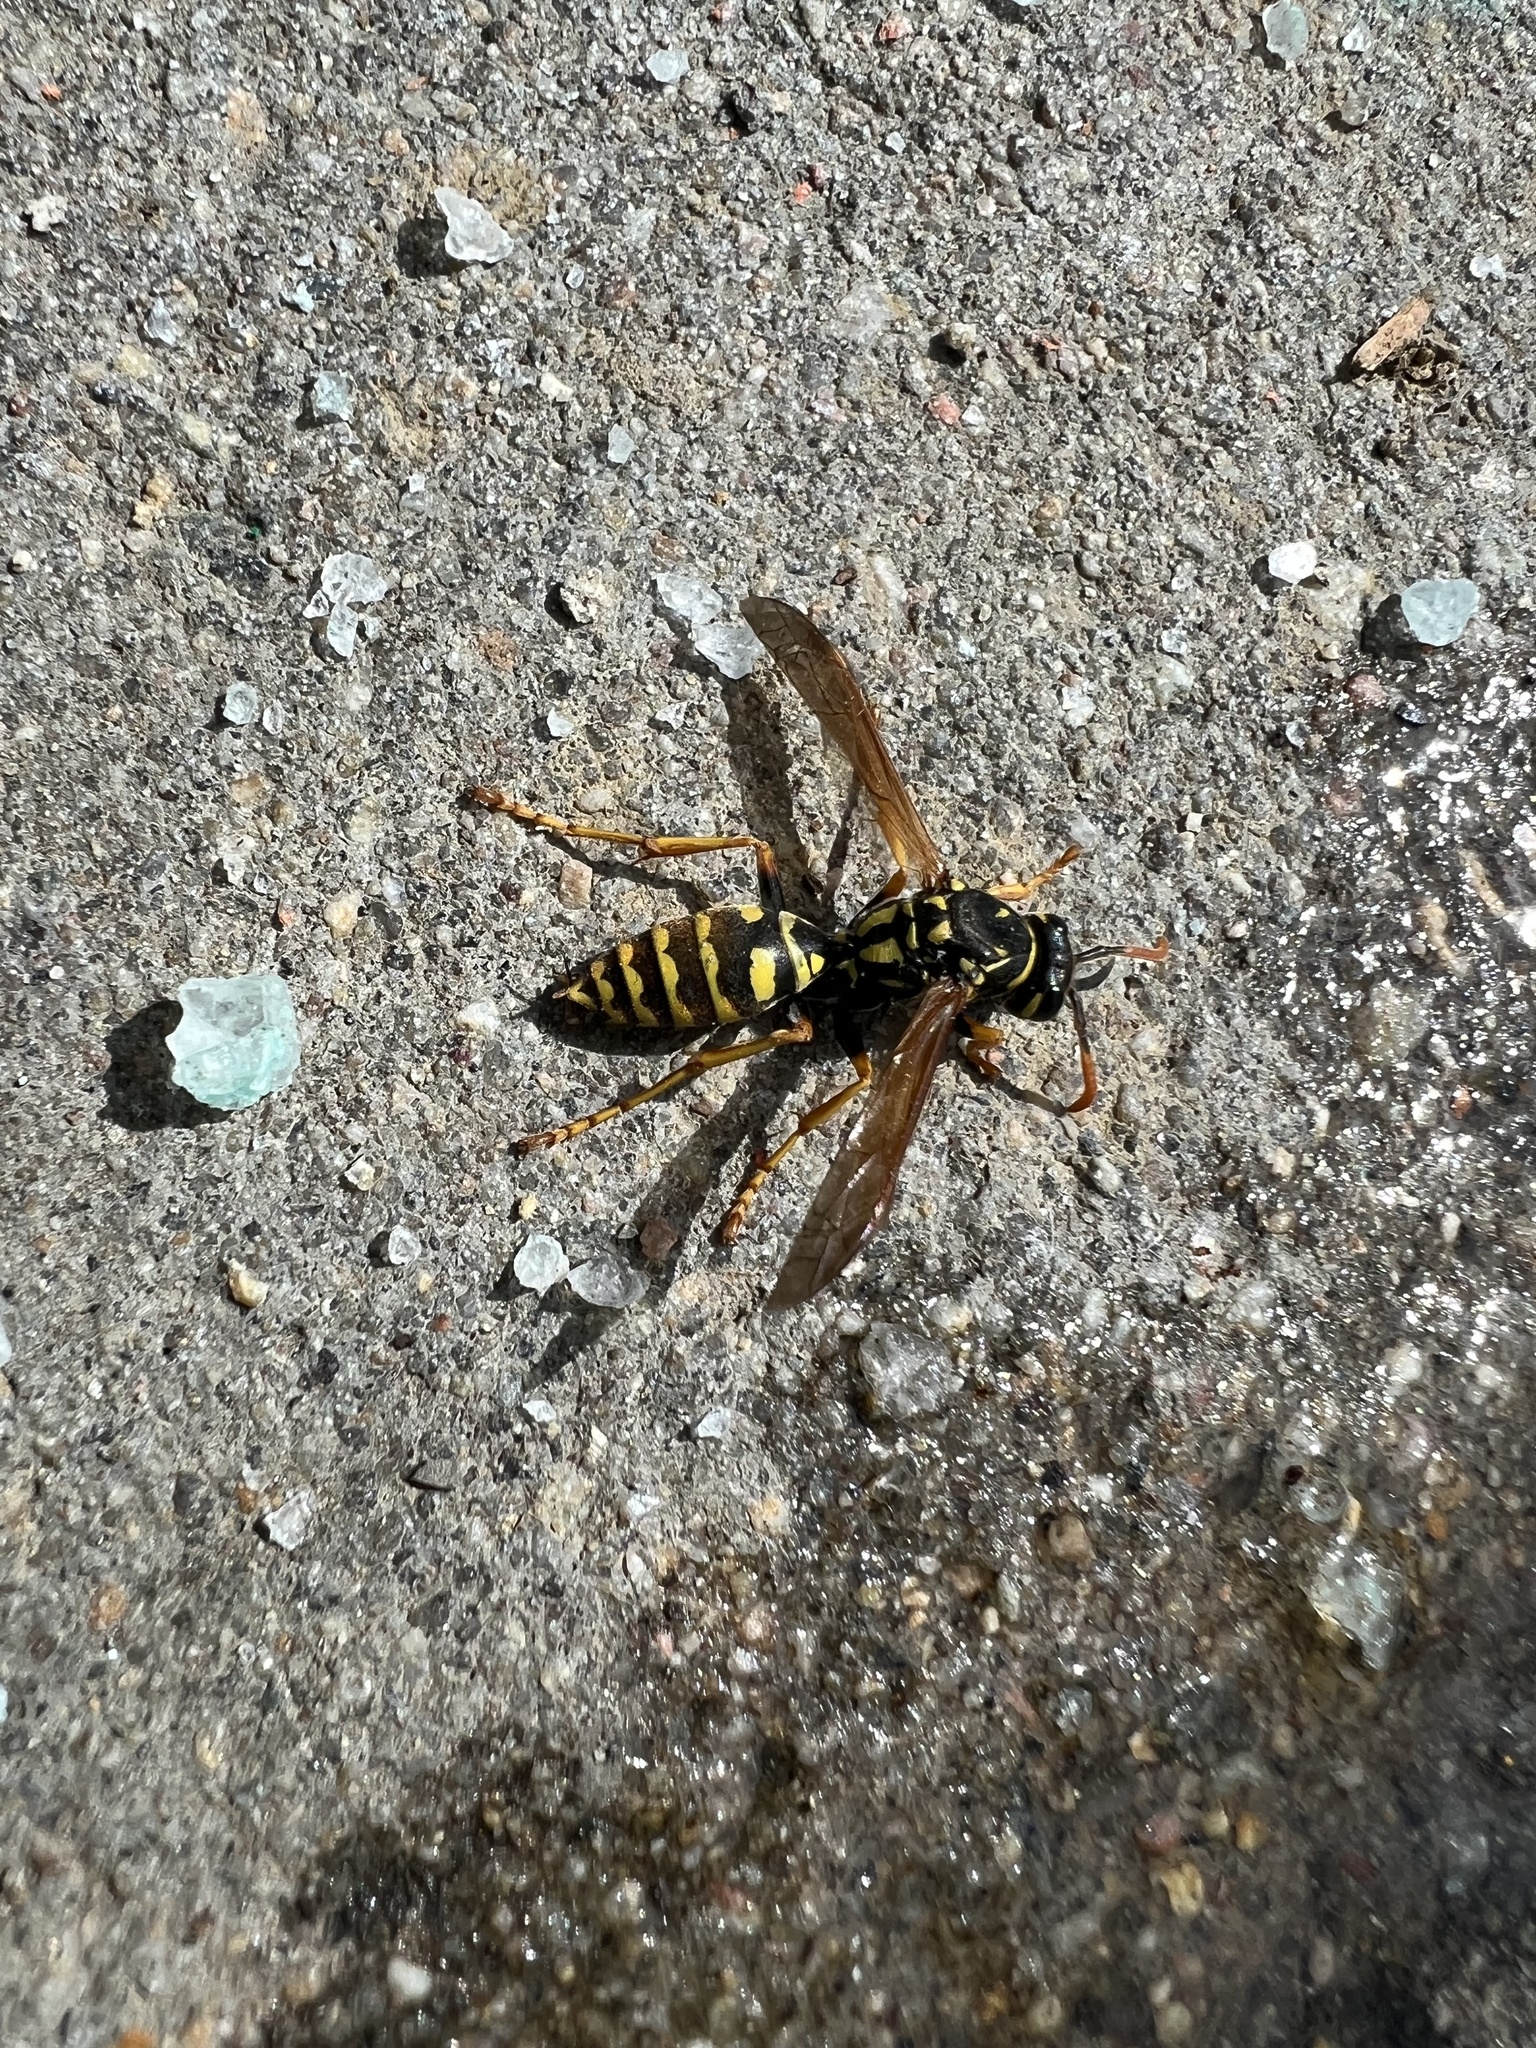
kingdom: Animalia
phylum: Arthropoda
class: Insecta
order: Hymenoptera
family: Eumenidae
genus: Polistes
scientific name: Polistes dominula
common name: Paper wasp
